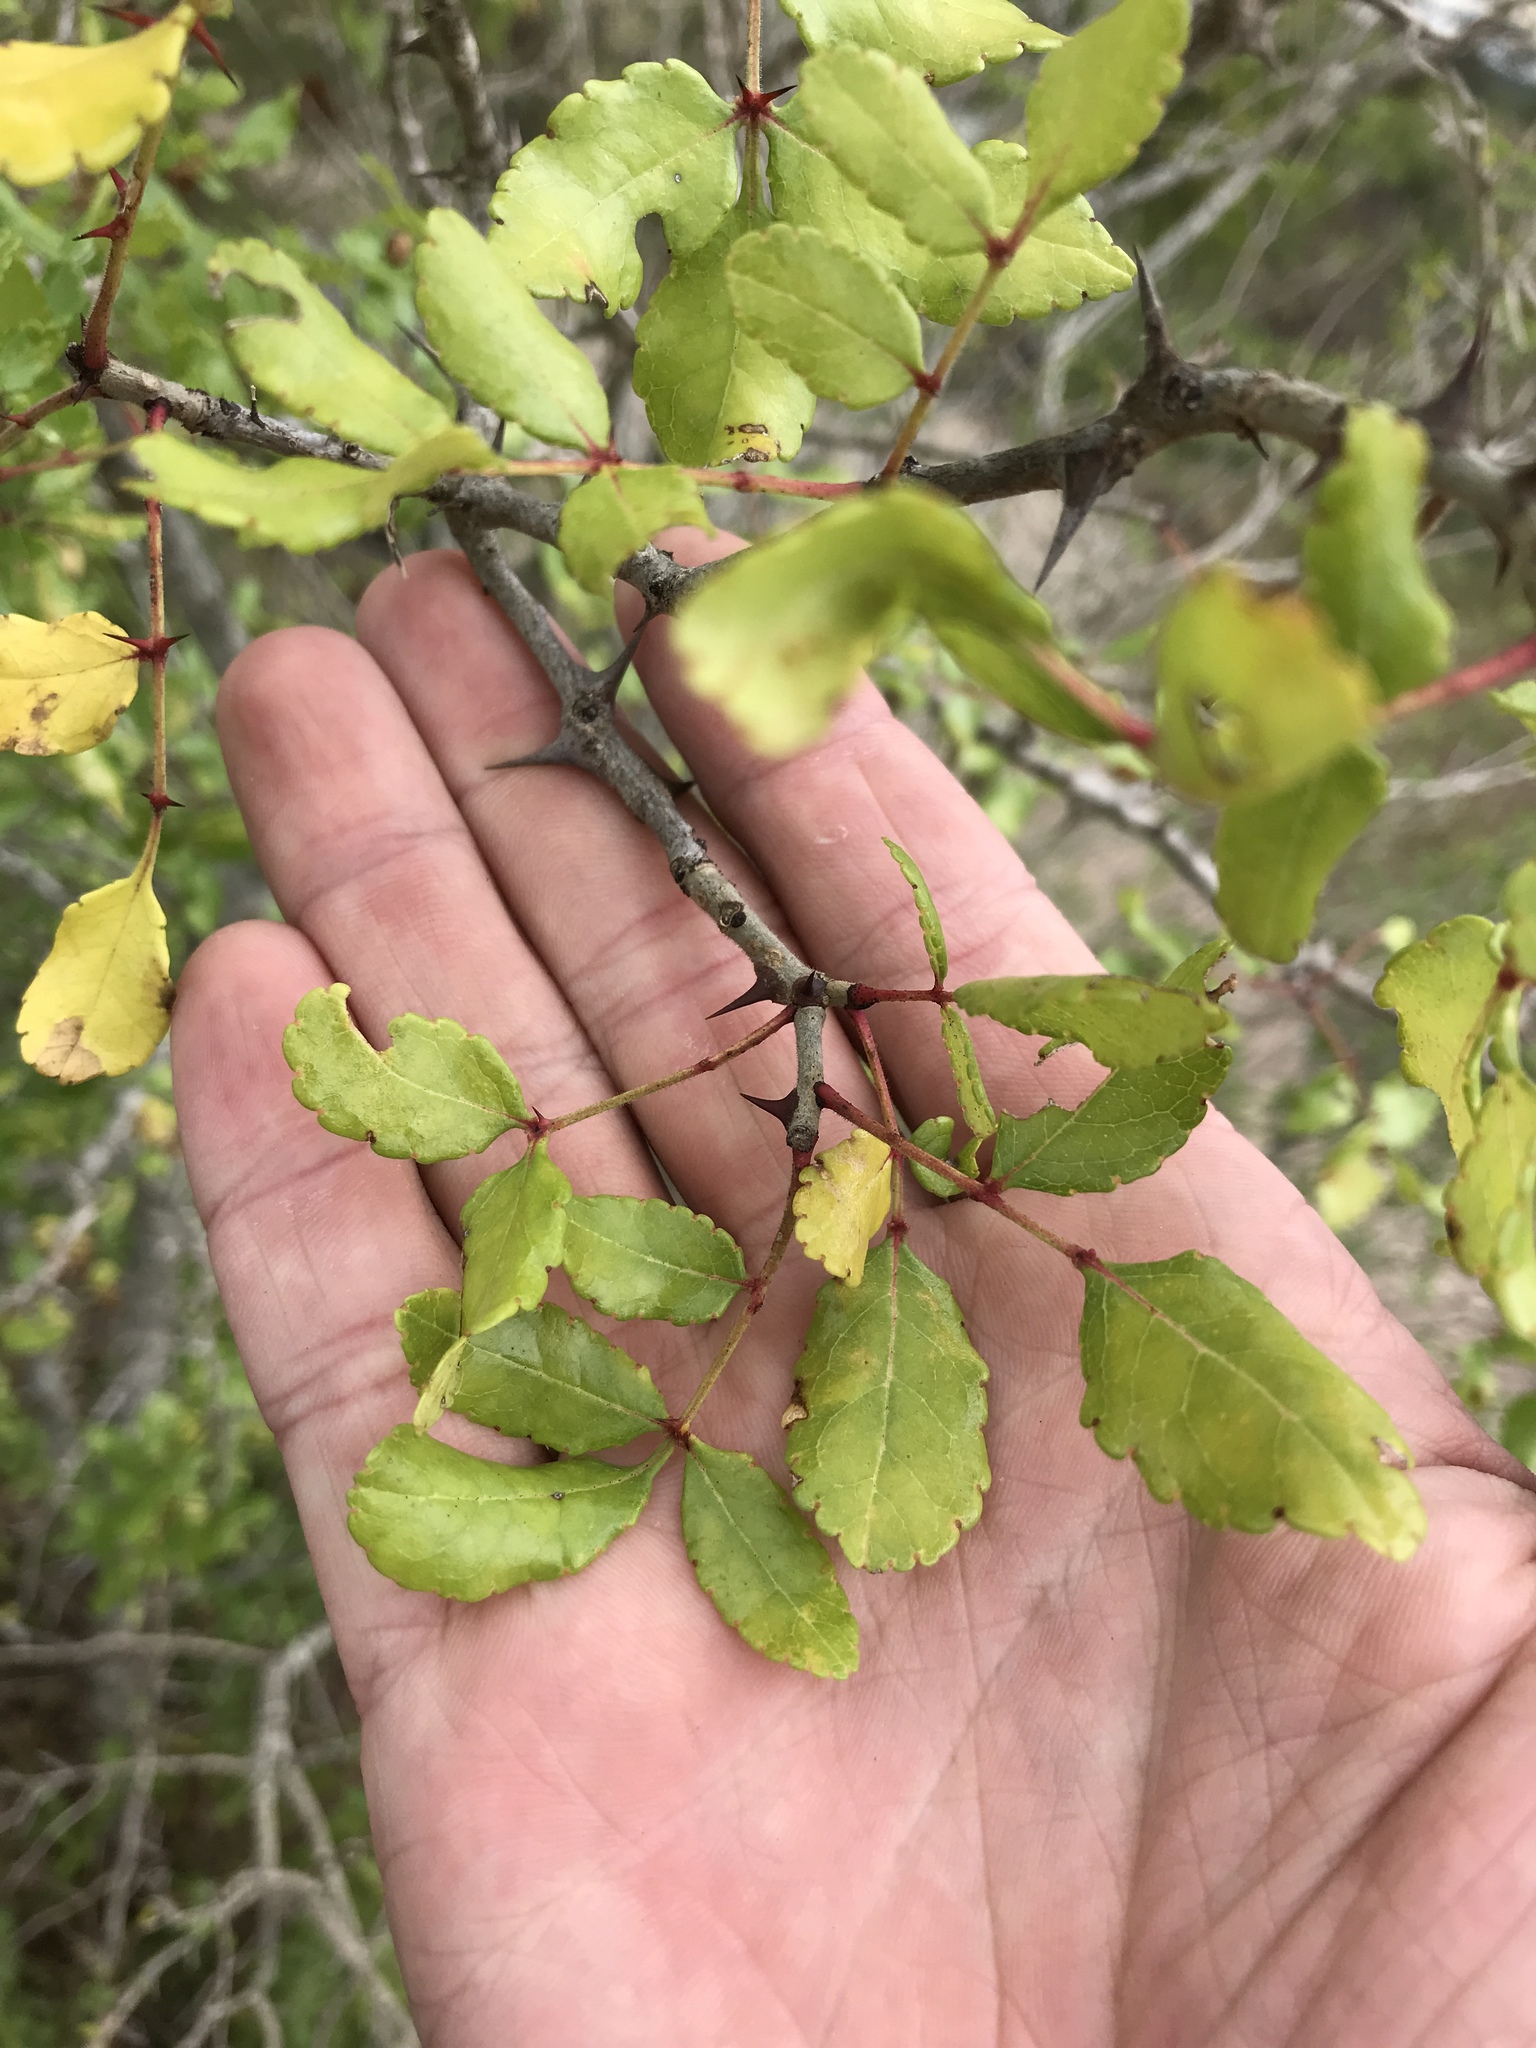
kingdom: Plantae
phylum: Tracheophyta
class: Magnoliopsida
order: Sapindales
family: Rutaceae
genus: Zanthoxylum
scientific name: Zanthoxylum clava-herculis
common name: Hercules'-club
